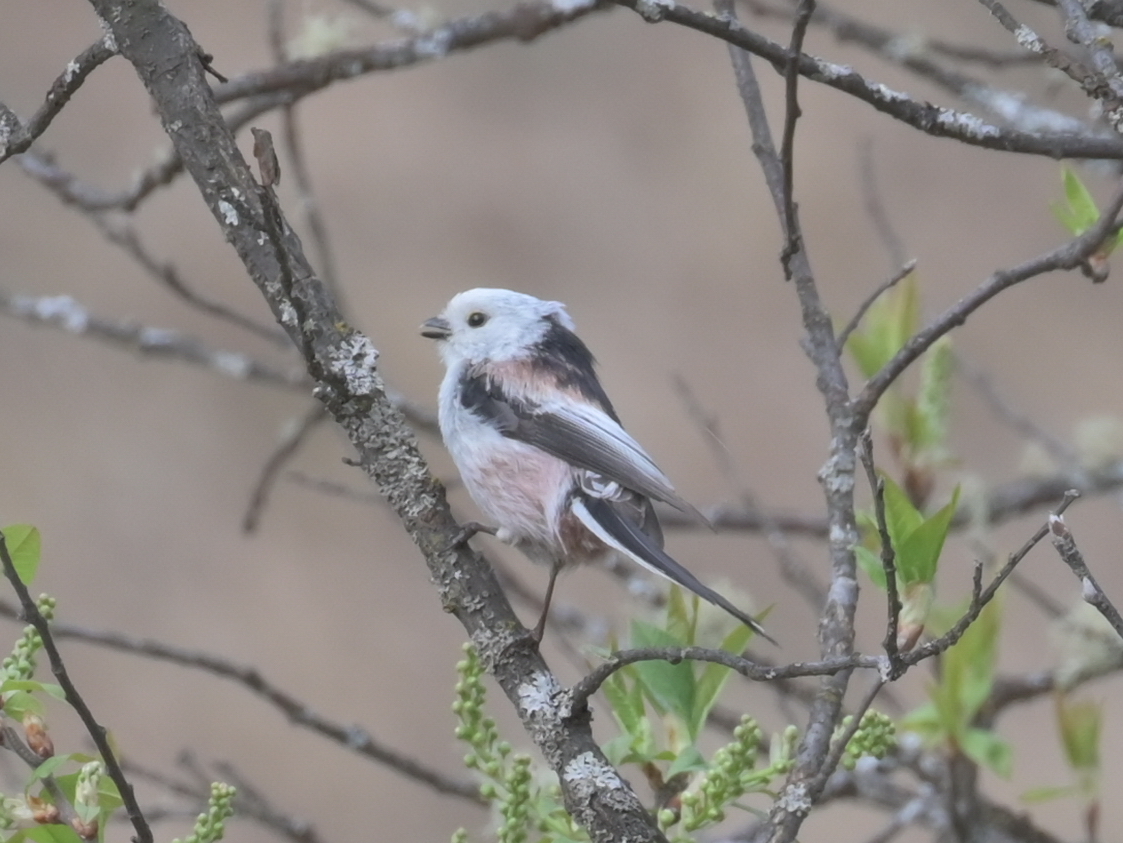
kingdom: Animalia
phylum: Chordata
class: Aves
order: Passeriformes
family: Aegithalidae
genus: Aegithalos
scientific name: Aegithalos caudatus
